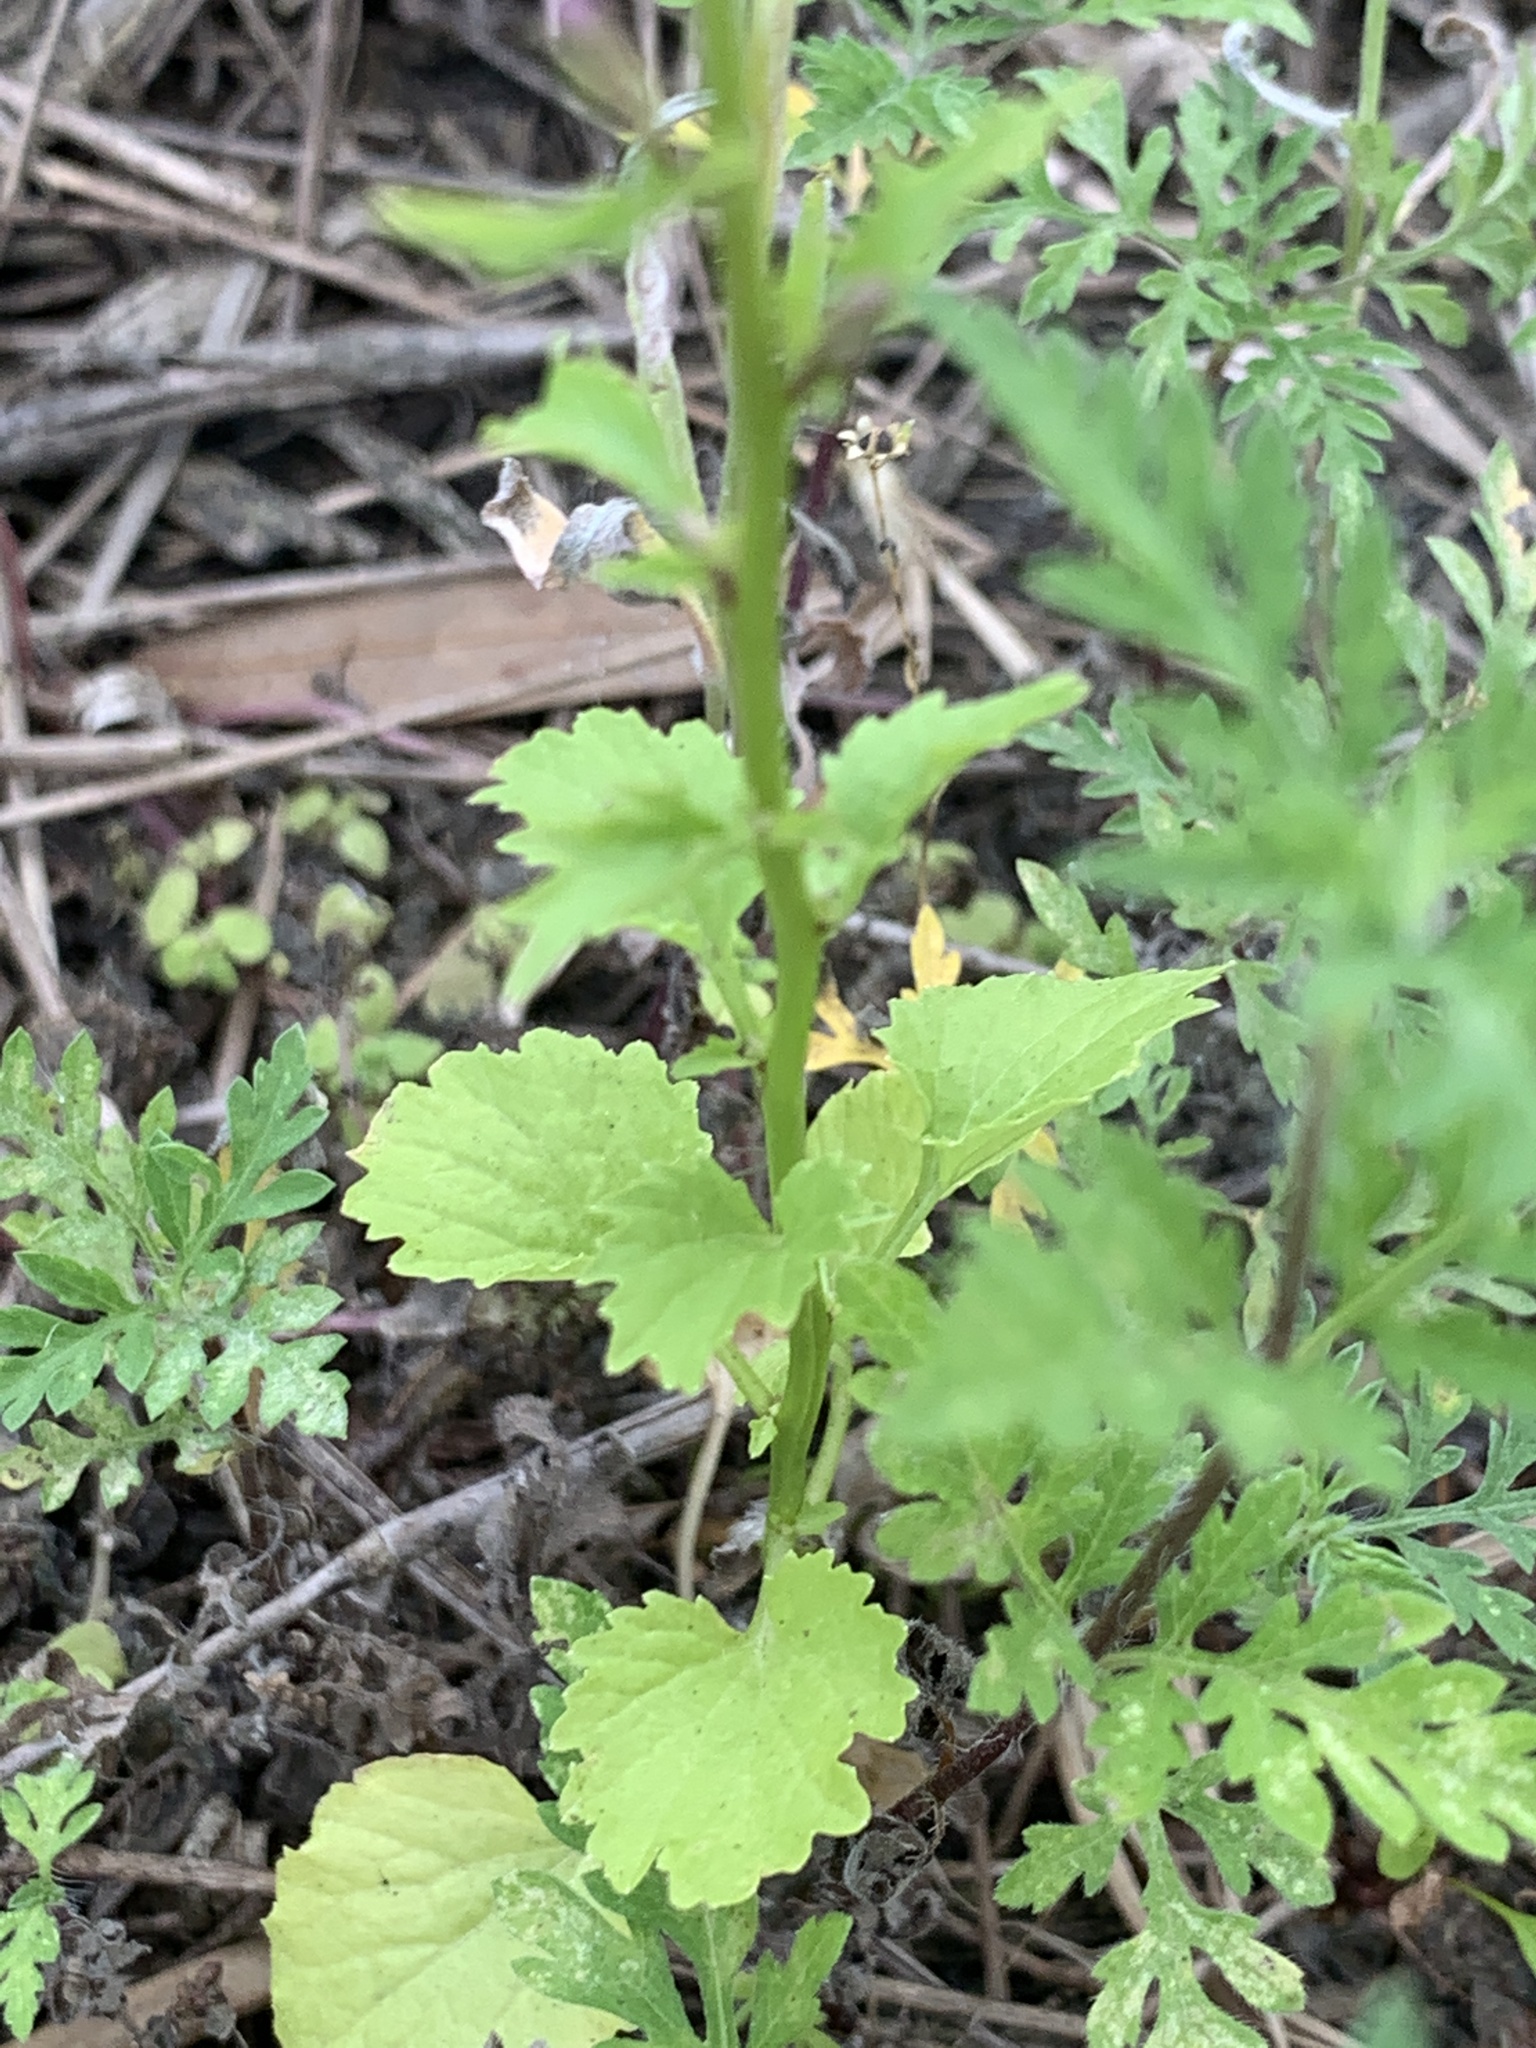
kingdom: Plantae
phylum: Tracheophyta
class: Magnoliopsida
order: Asterales
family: Campanulaceae
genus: Lobelia
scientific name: Lobelia homophylla
